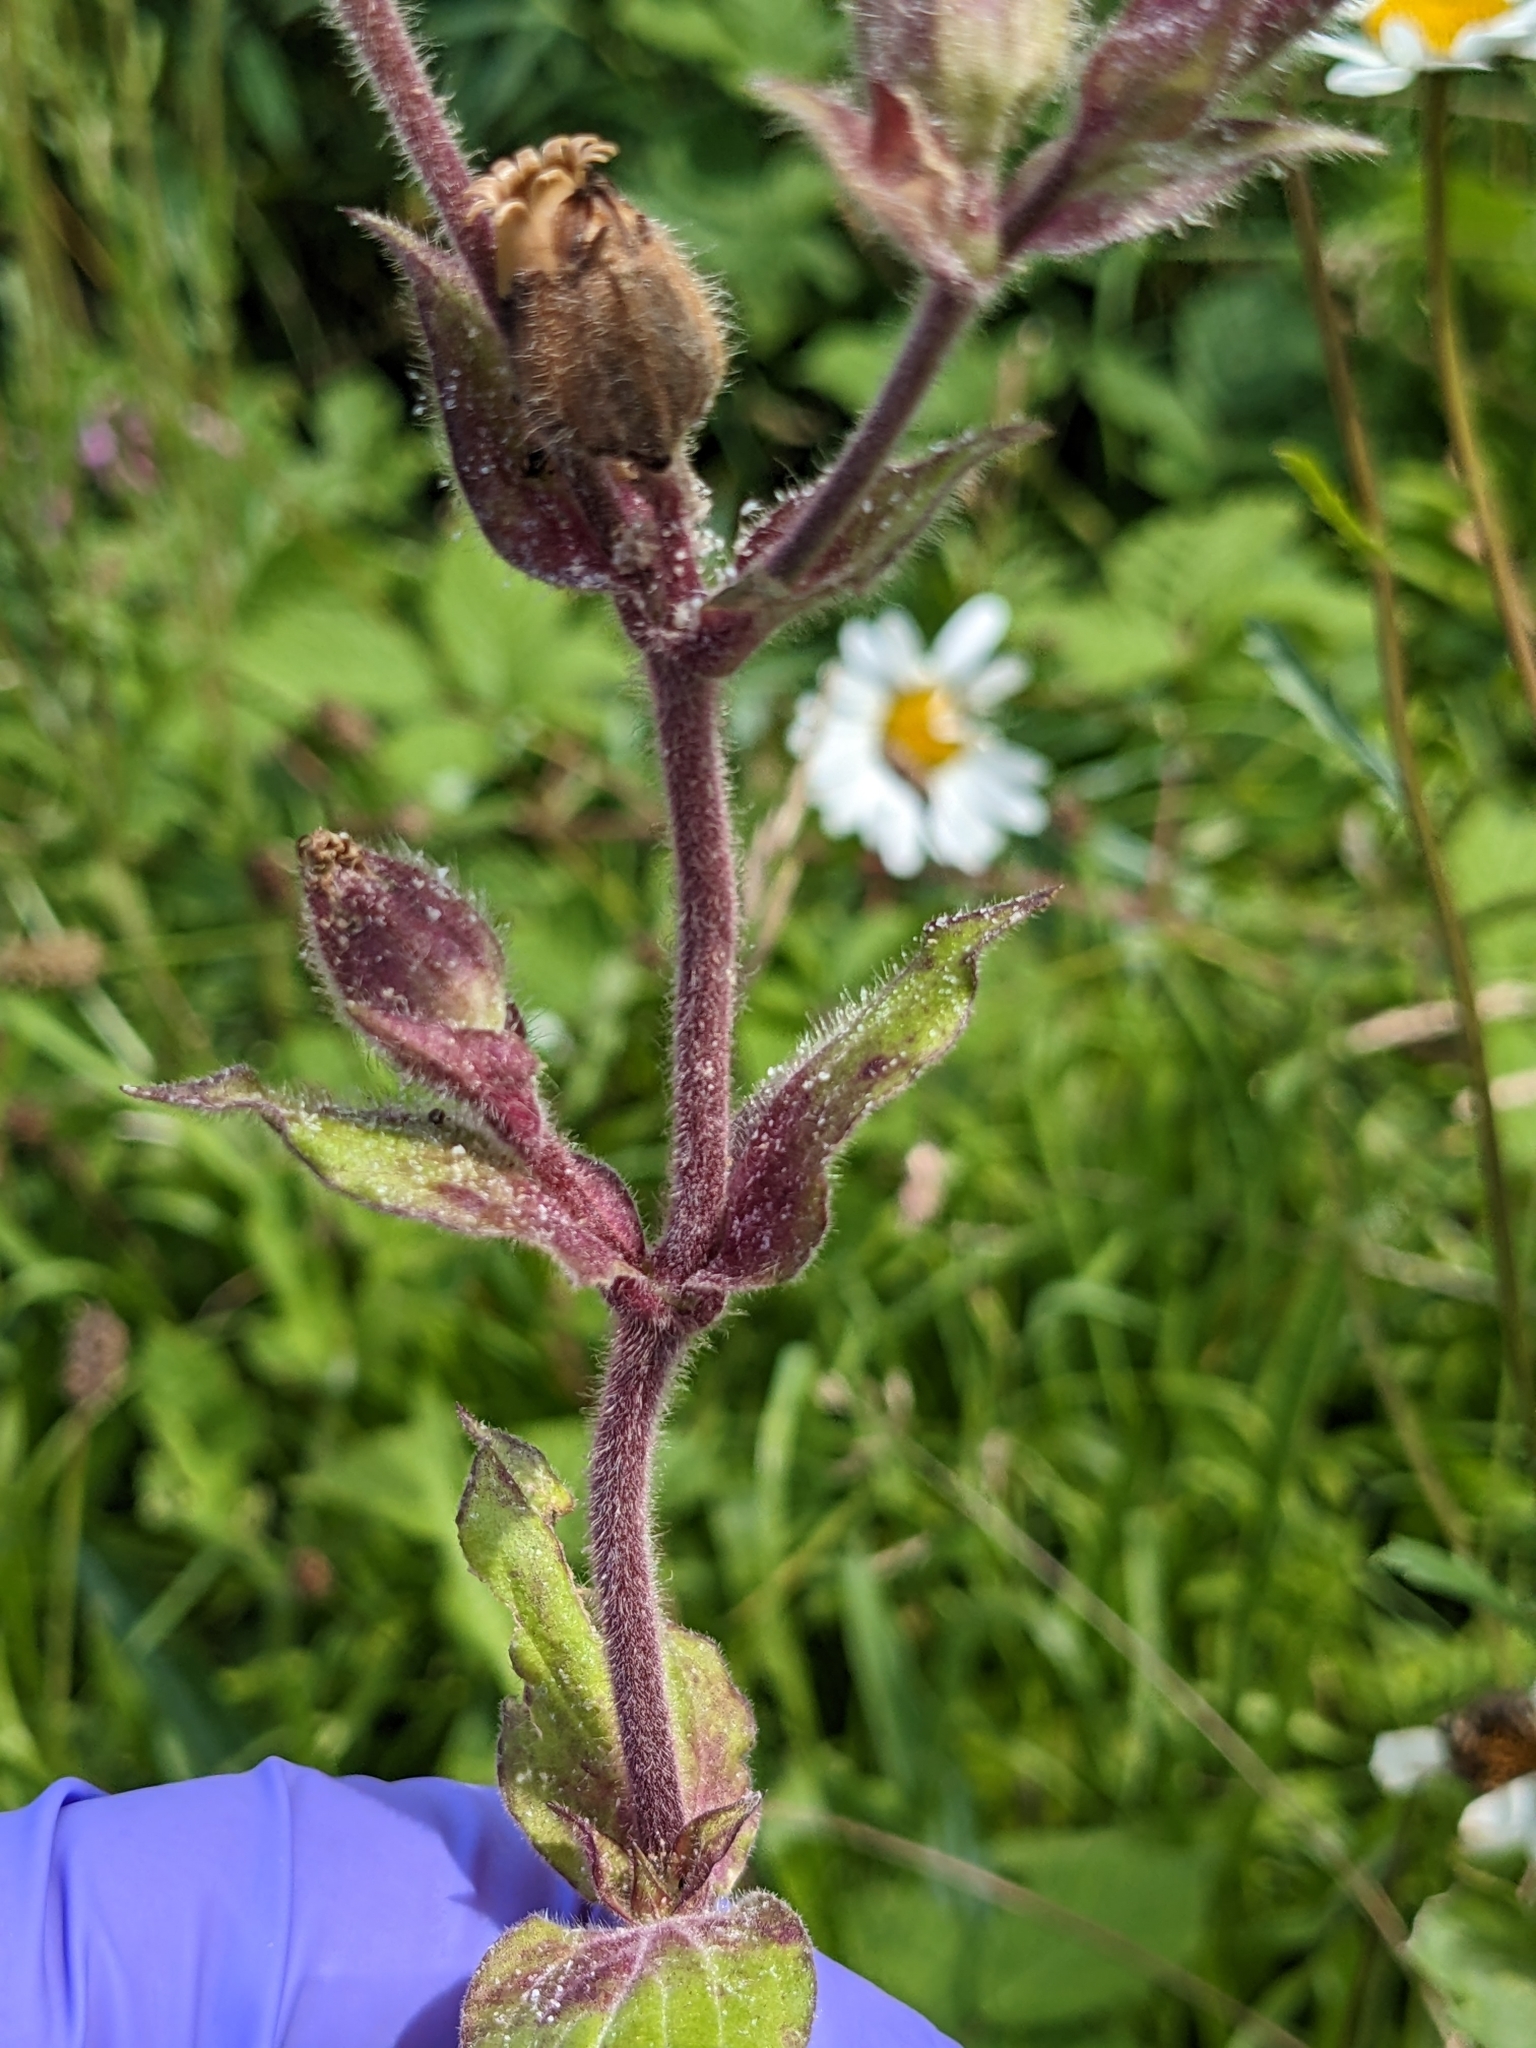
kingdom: Plantae
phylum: Tracheophyta
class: Magnoliopsida
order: Caryophyllales
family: Caryophyllaceae
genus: Silene
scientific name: Silene dioica
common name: Red campion
